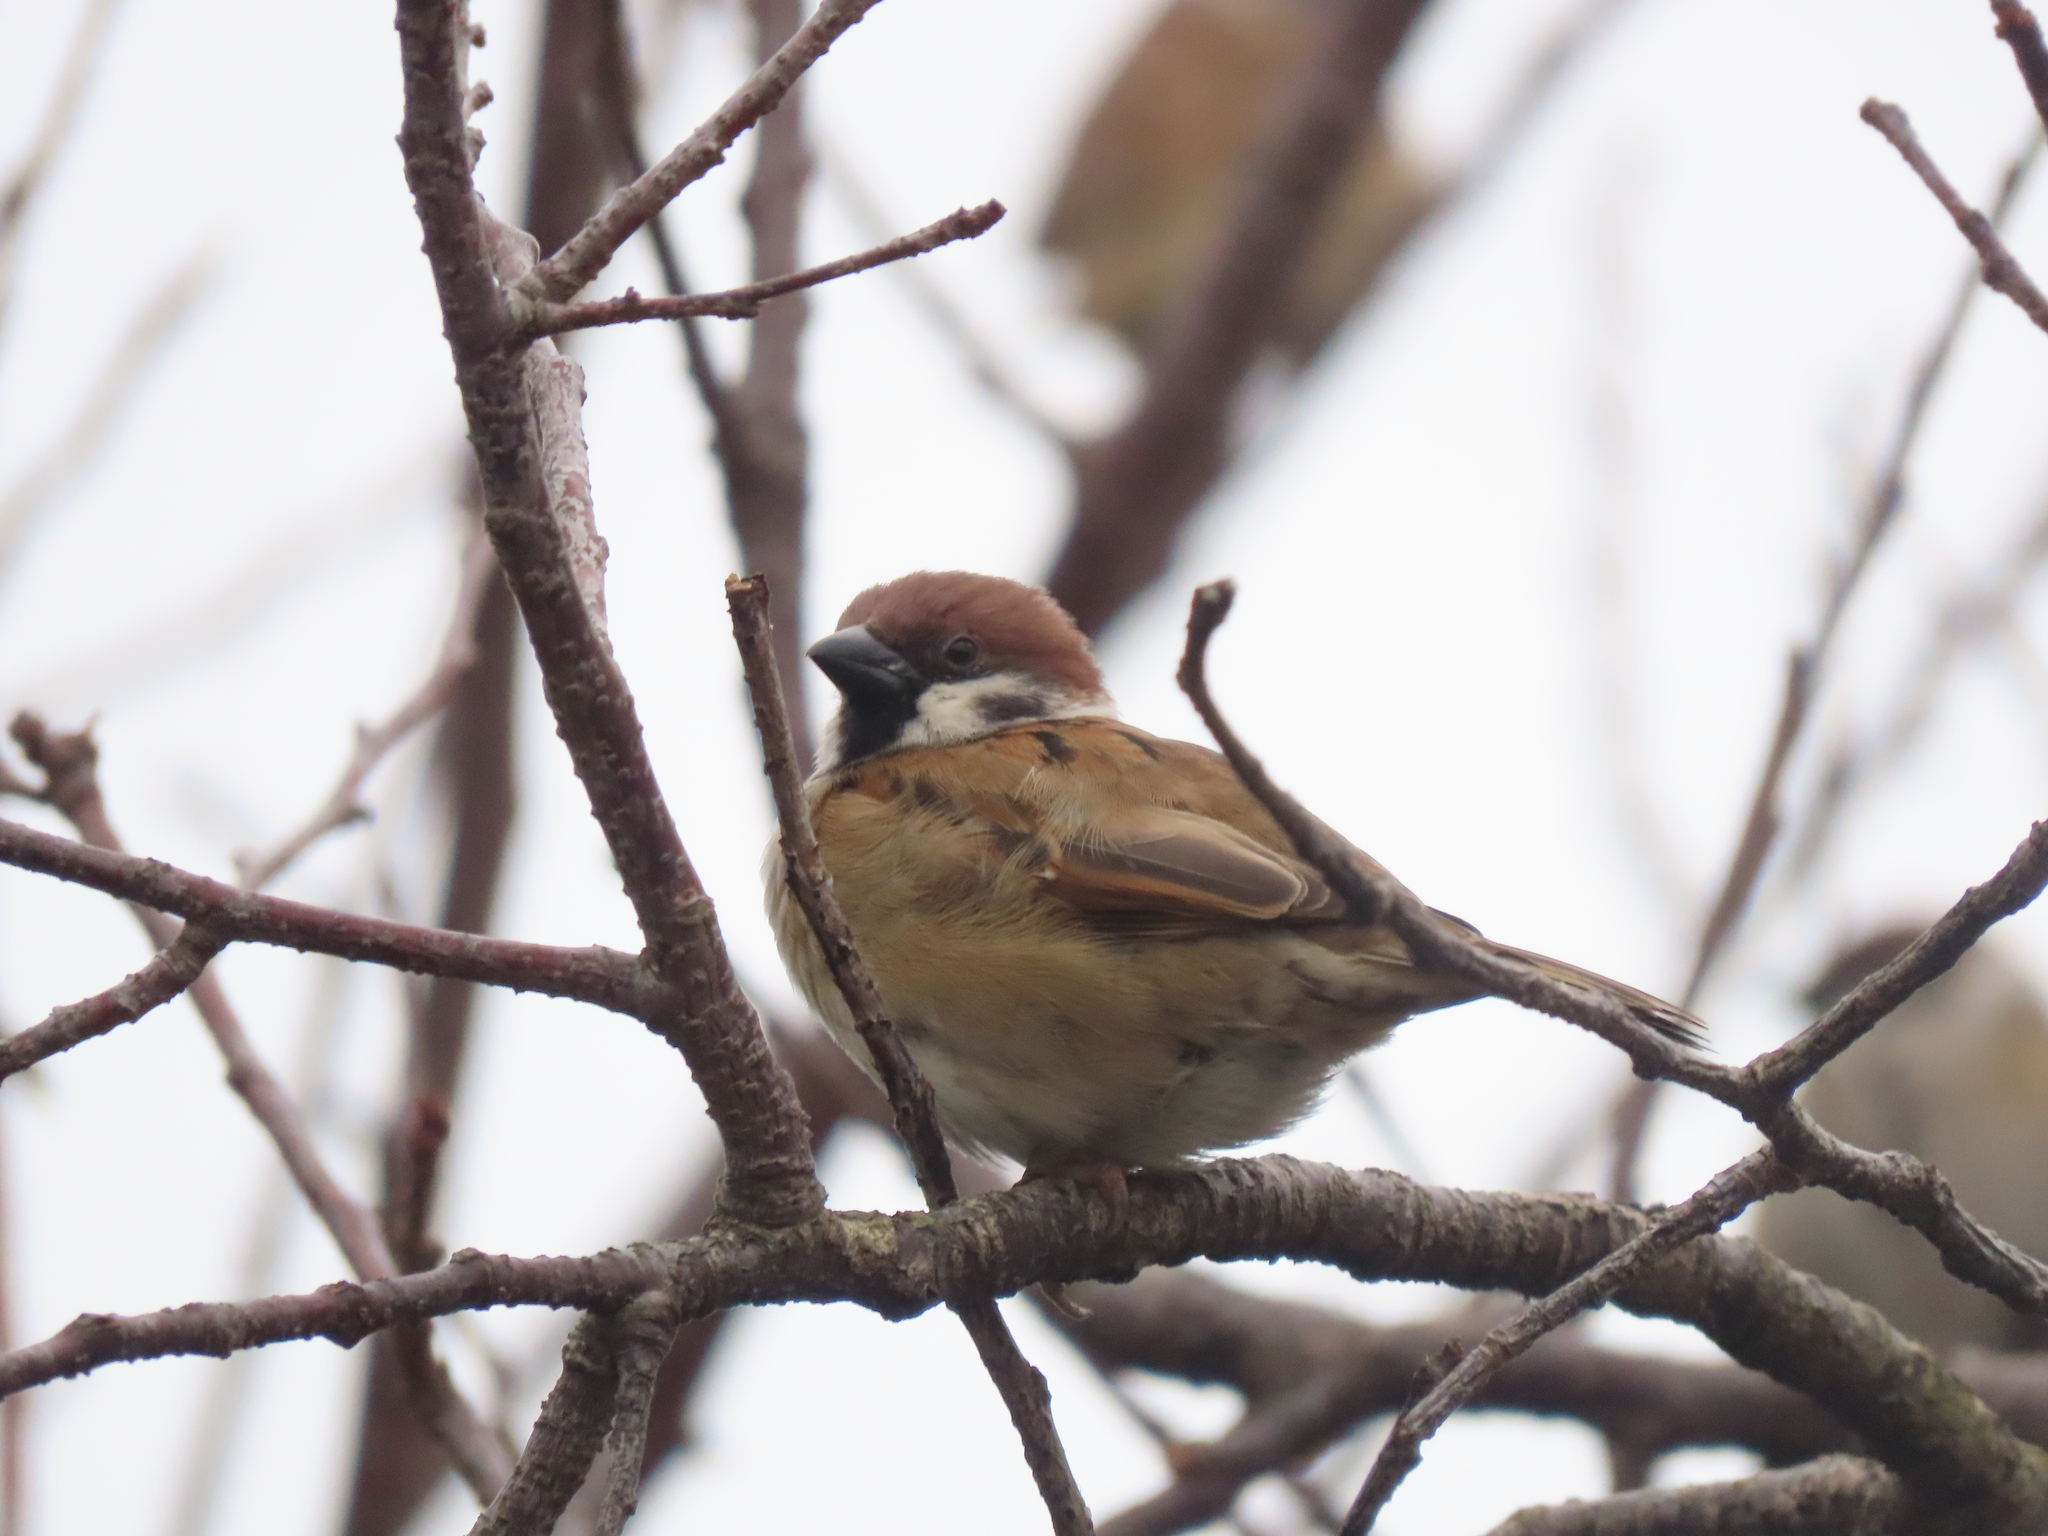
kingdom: Animalia
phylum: Chordata
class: Aves
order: Passeriformes
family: Passeridae
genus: Passer
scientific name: Passer montanus
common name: Eurasian tree sparrow
